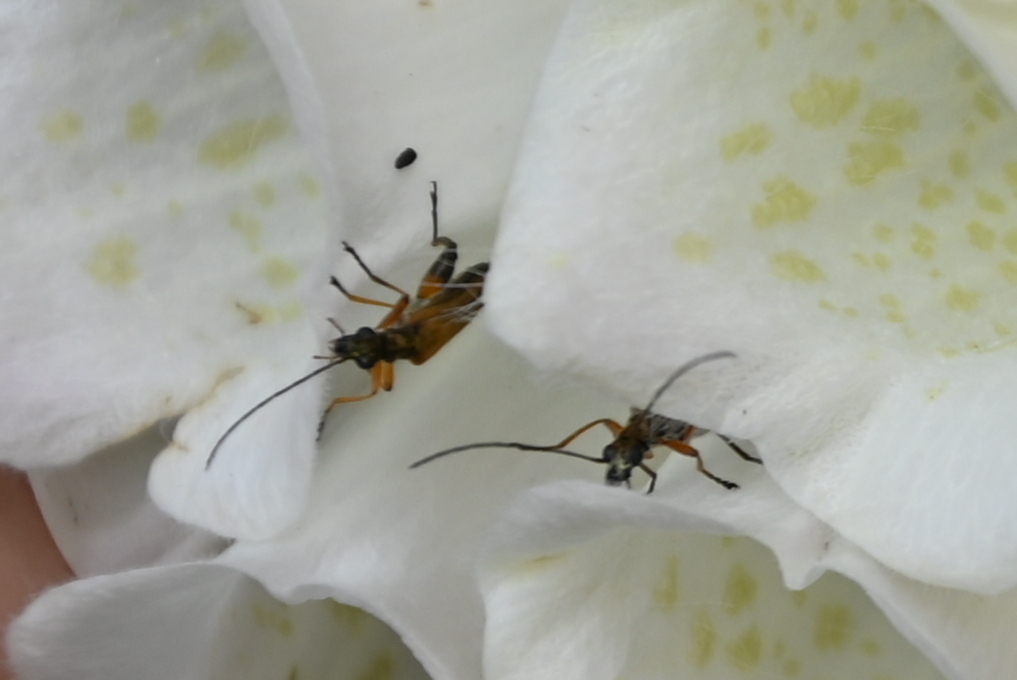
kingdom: Animalia
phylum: Arthropoda
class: Insecta
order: Coleoptera
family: Oedemeridae
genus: Oedemera
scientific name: Oedemera podagrariae
